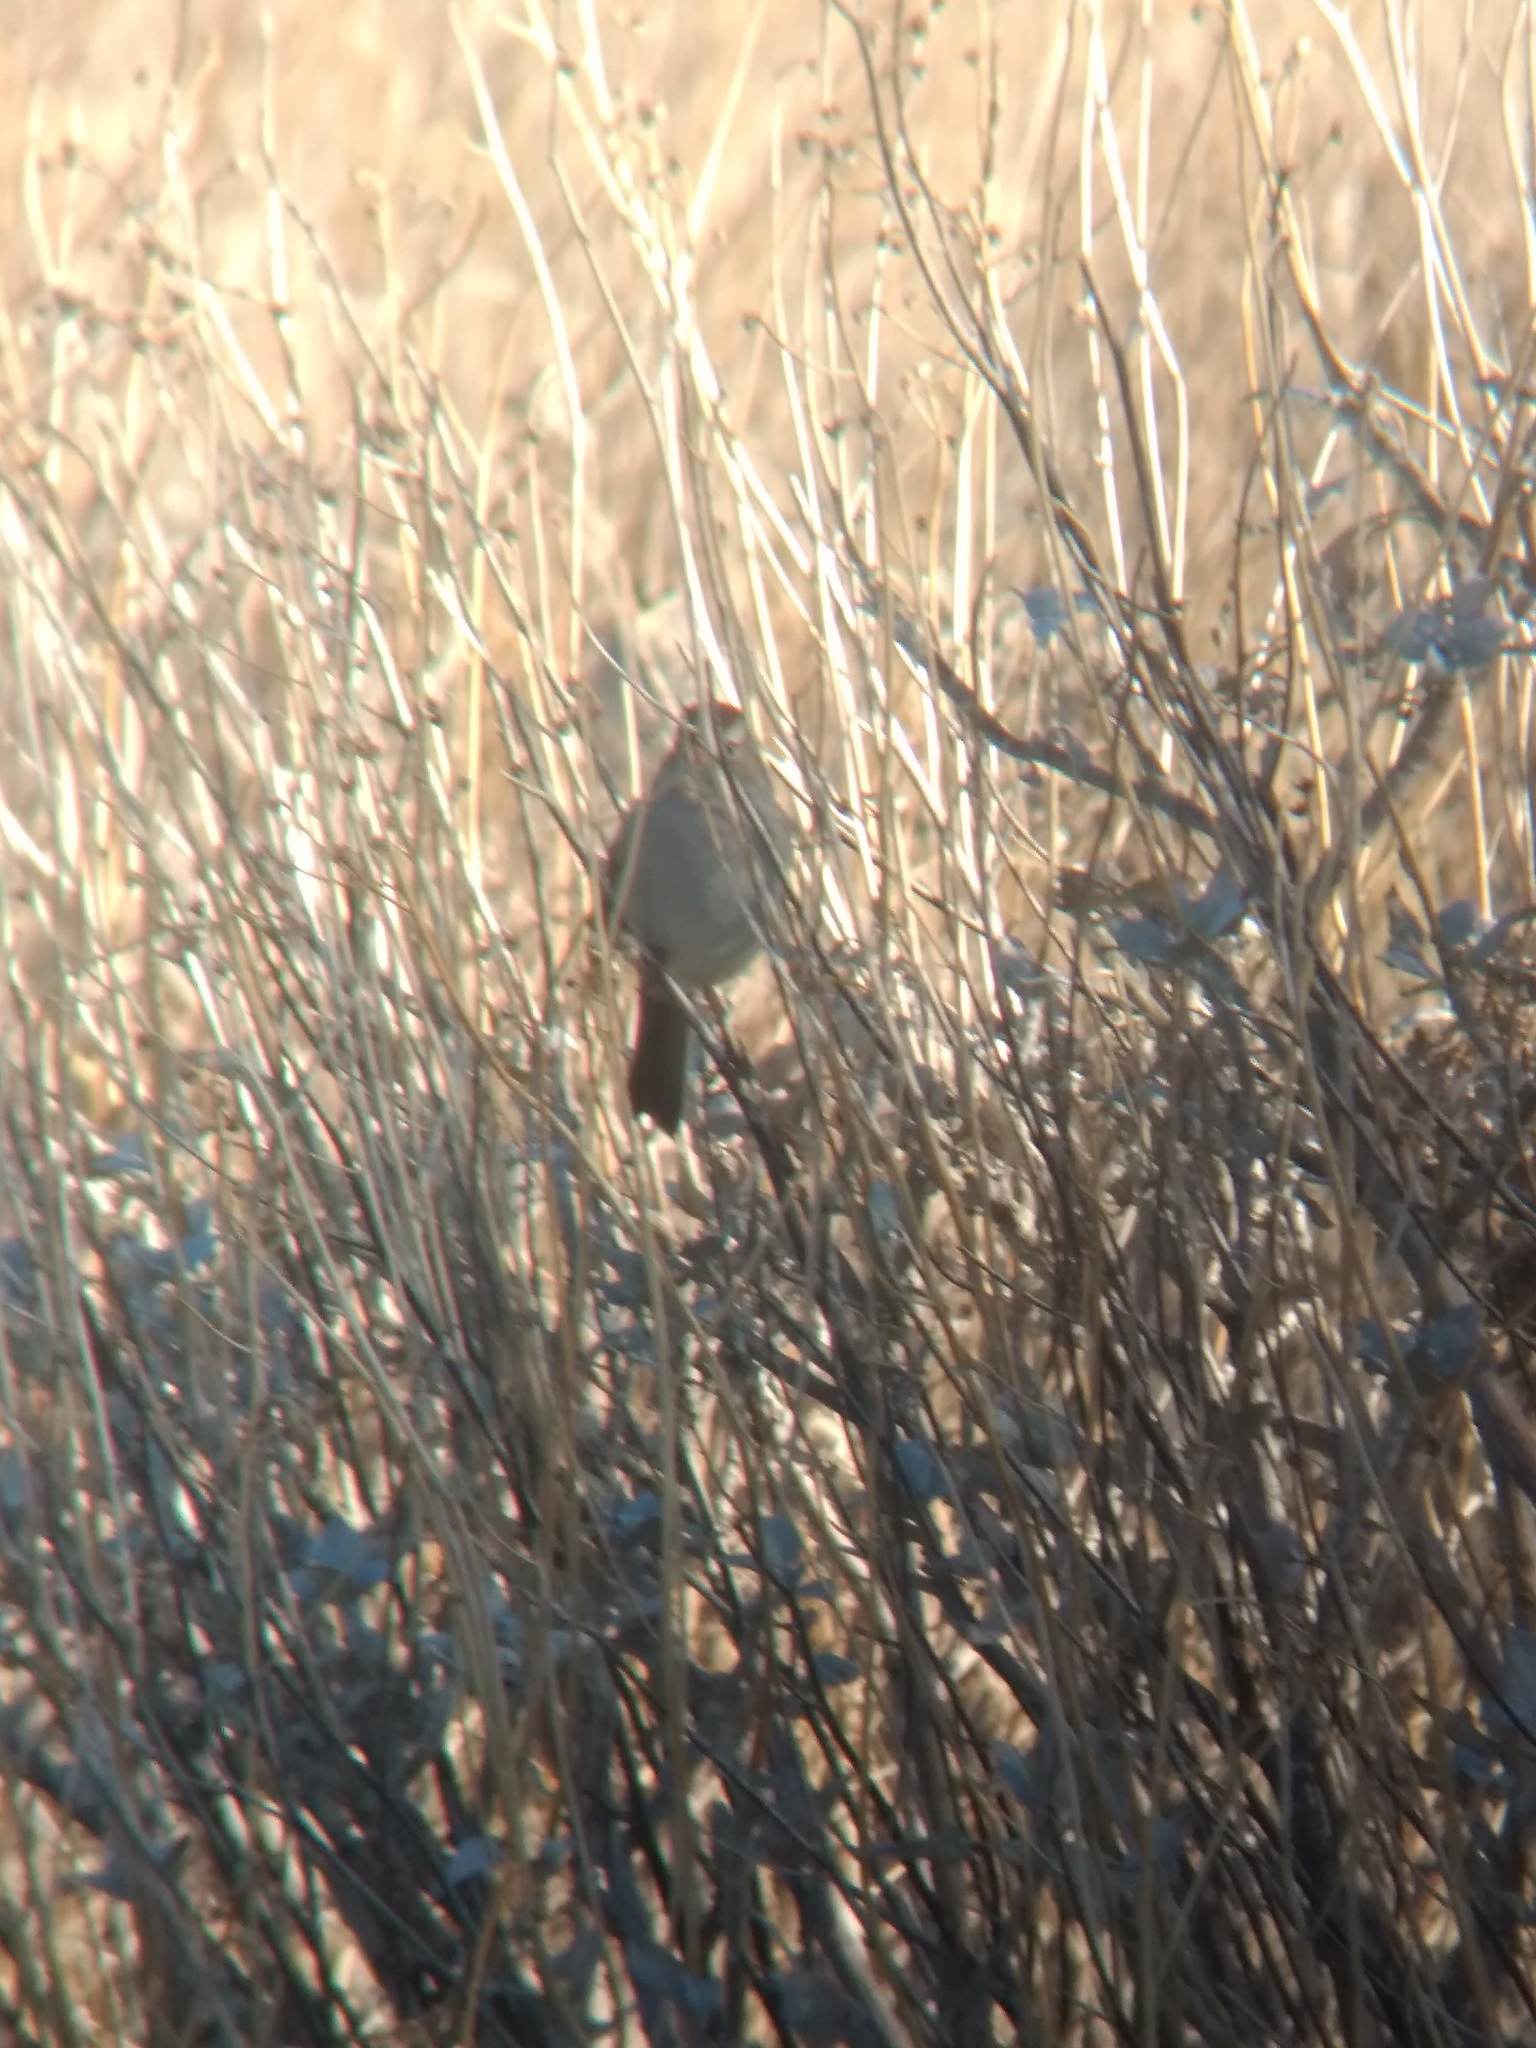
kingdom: Animalia
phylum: Chordata
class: Aves
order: Passeriformes
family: Passerellidae
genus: Zonotrichia
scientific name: Zonotrichia leucophrys
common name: White-crowned sparrow
